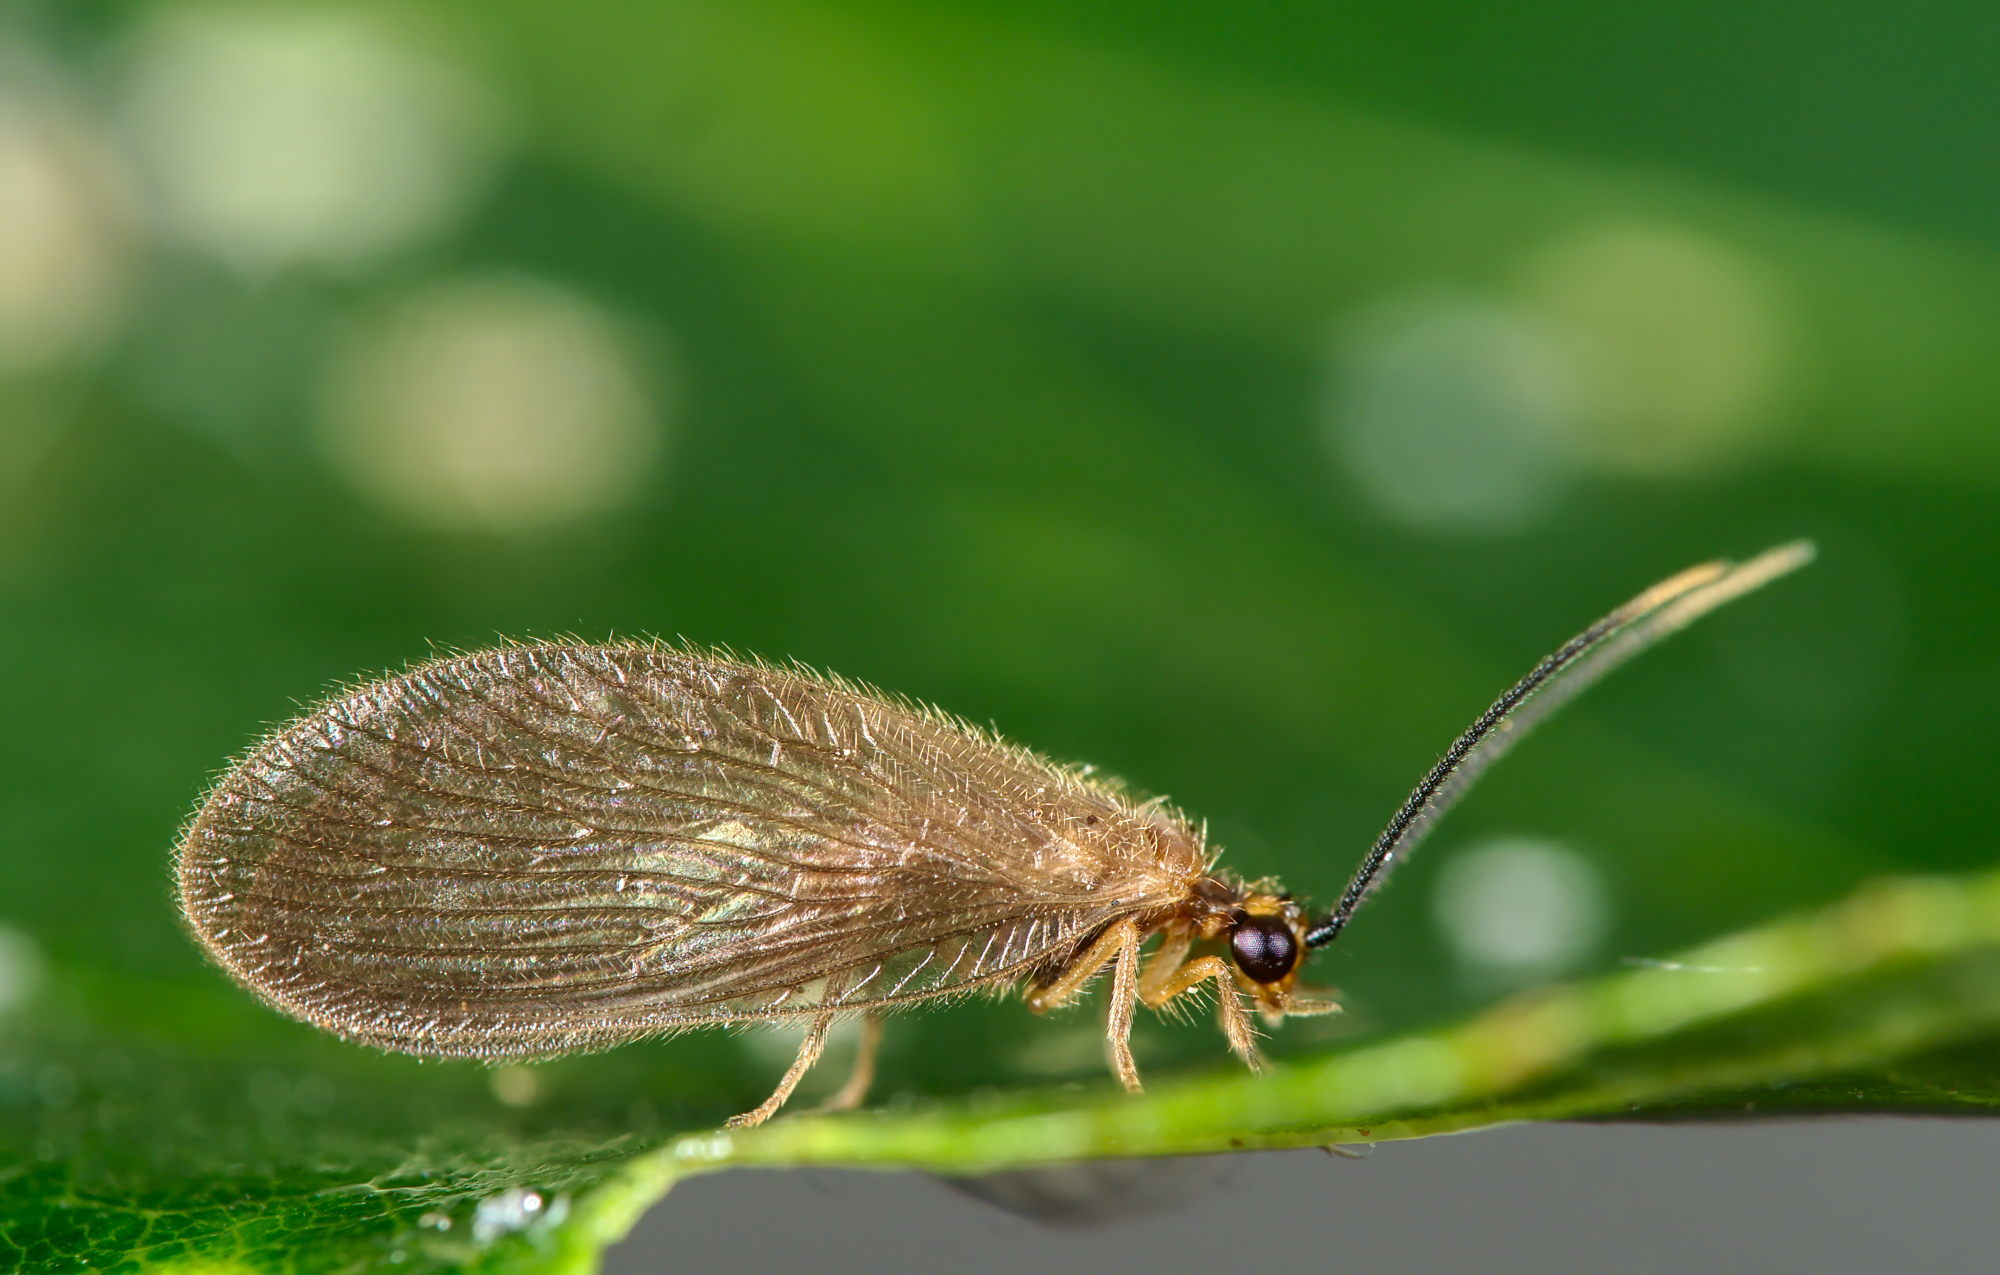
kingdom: Animalia
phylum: Arthropoda
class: Insecta
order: Neuroptera
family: Sisyridae
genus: Sisyra
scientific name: Sisyra terminalis
